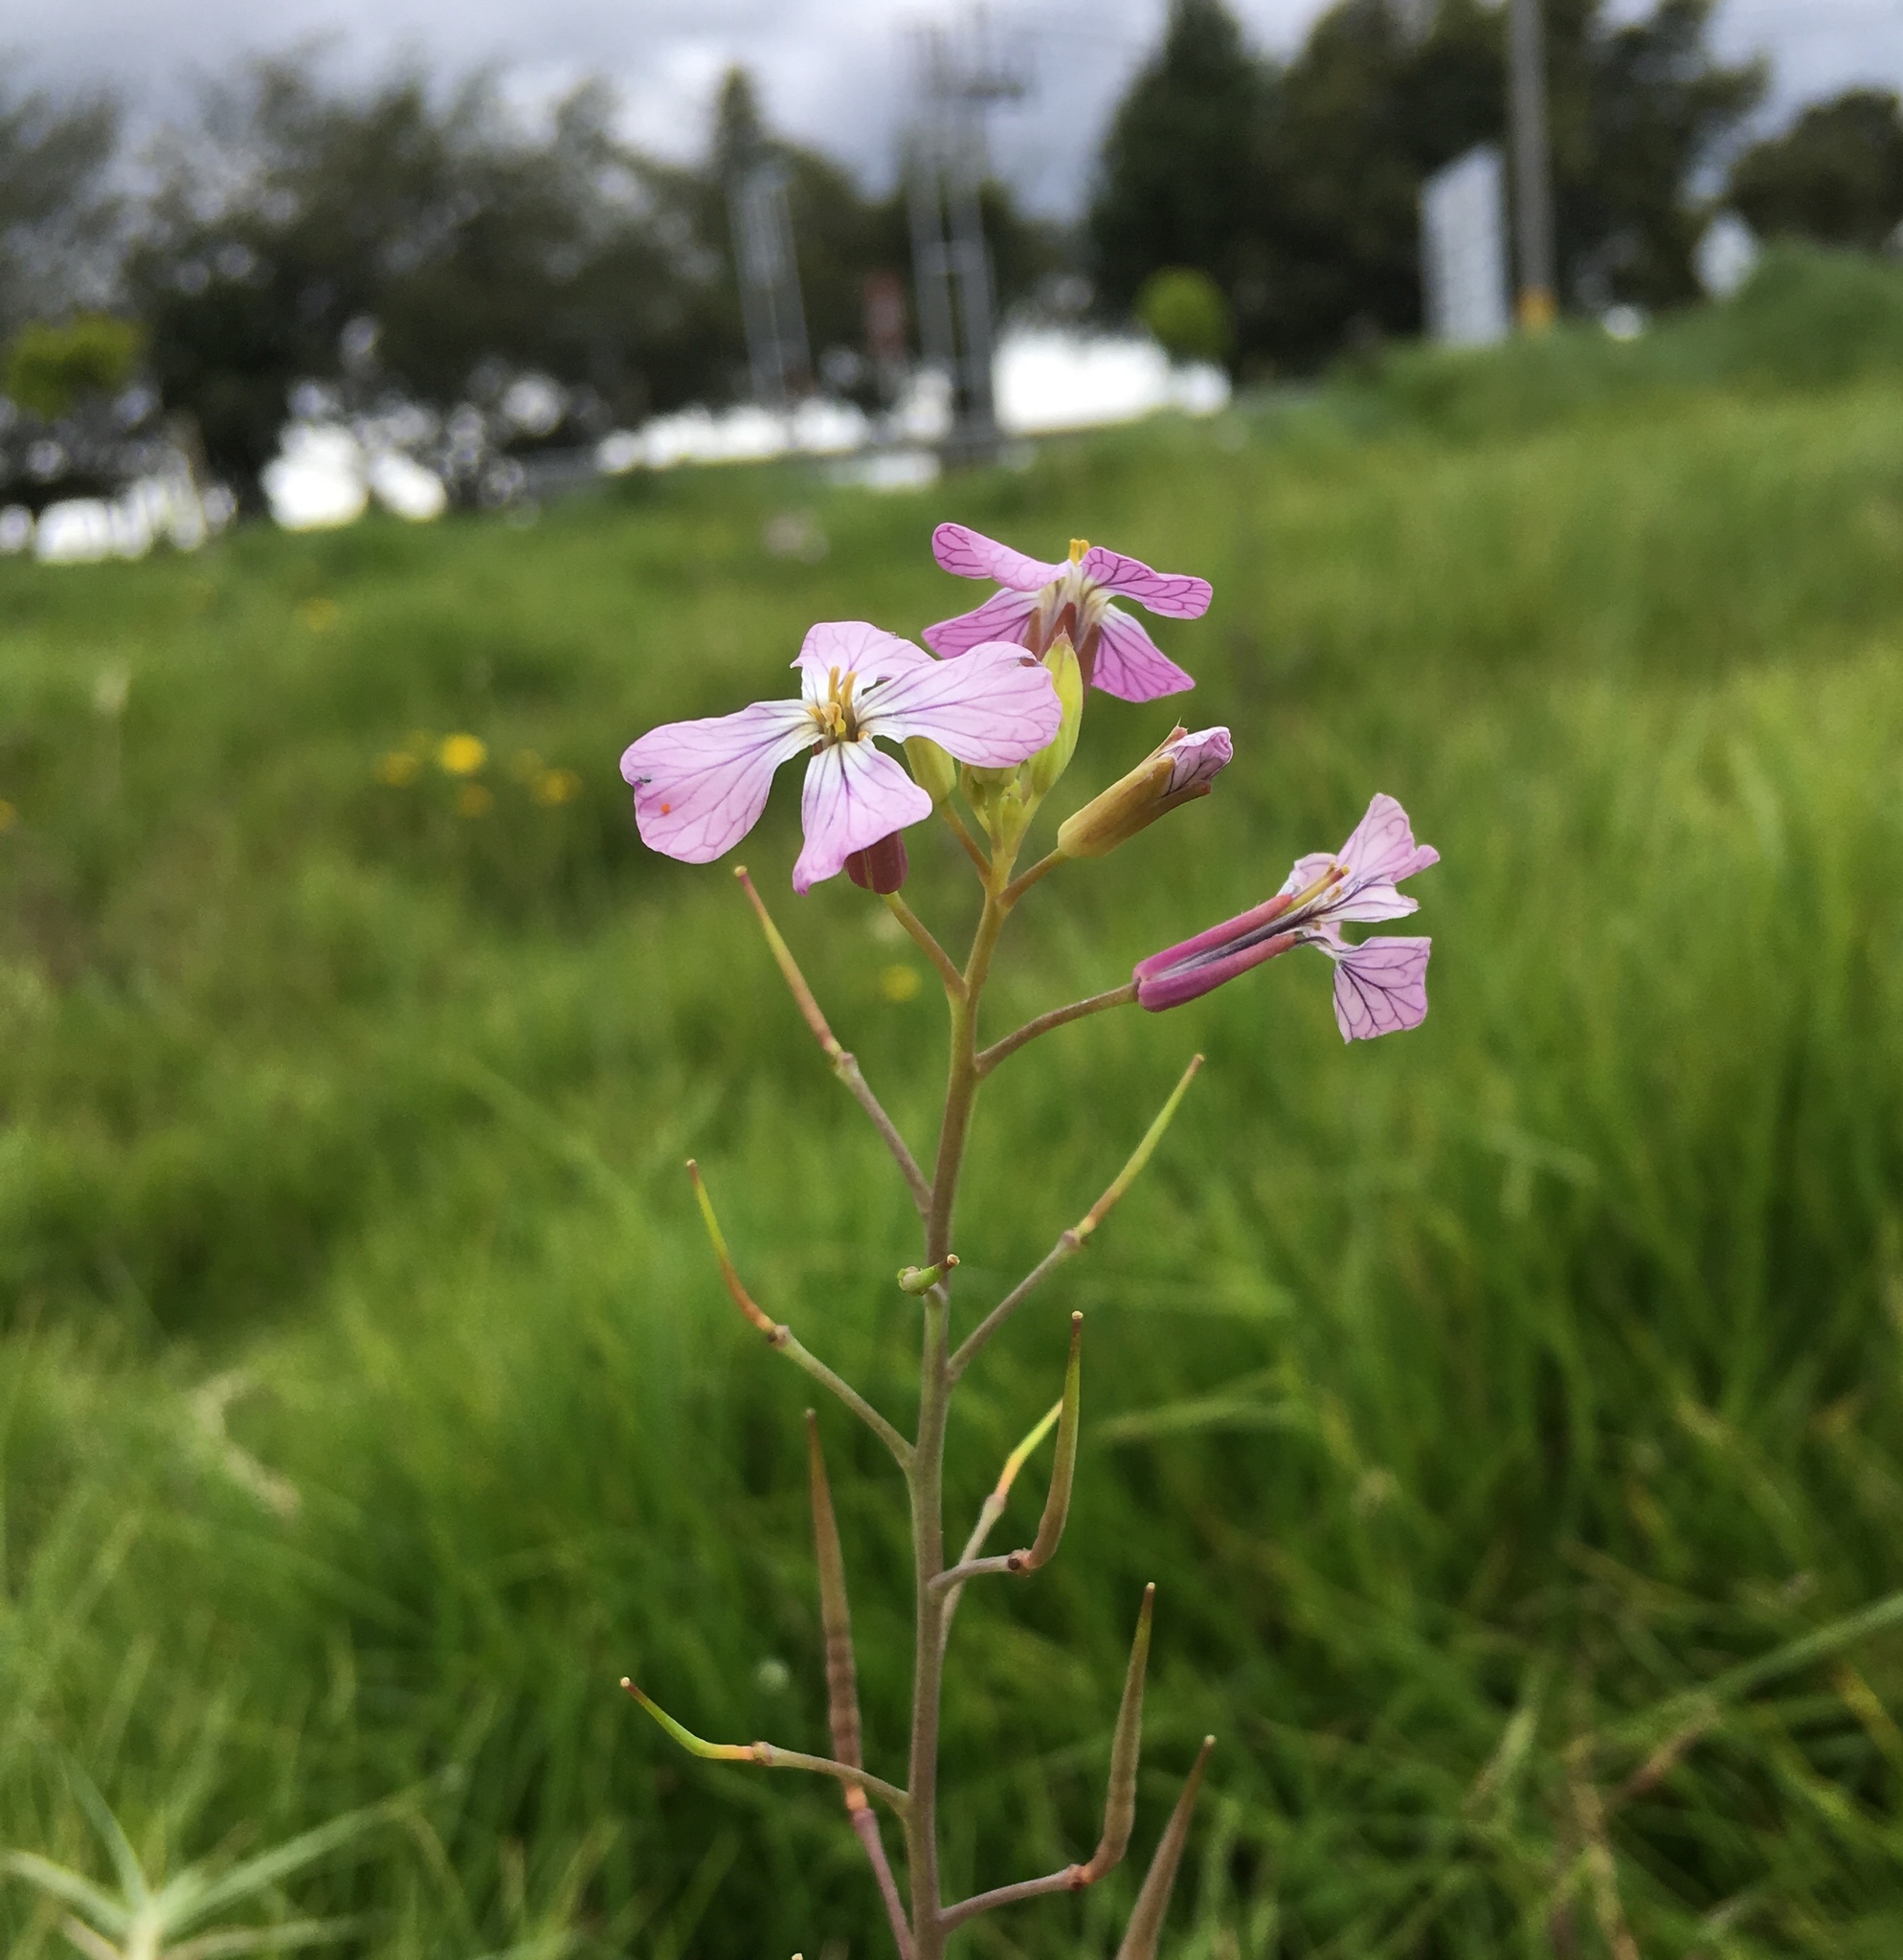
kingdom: Plantae
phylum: Tracheophyta
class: Magnoliopsida
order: Brassicales
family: Brassicaceae
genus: Raphanus
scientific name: Raphanus sativus
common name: Cultivated radish
